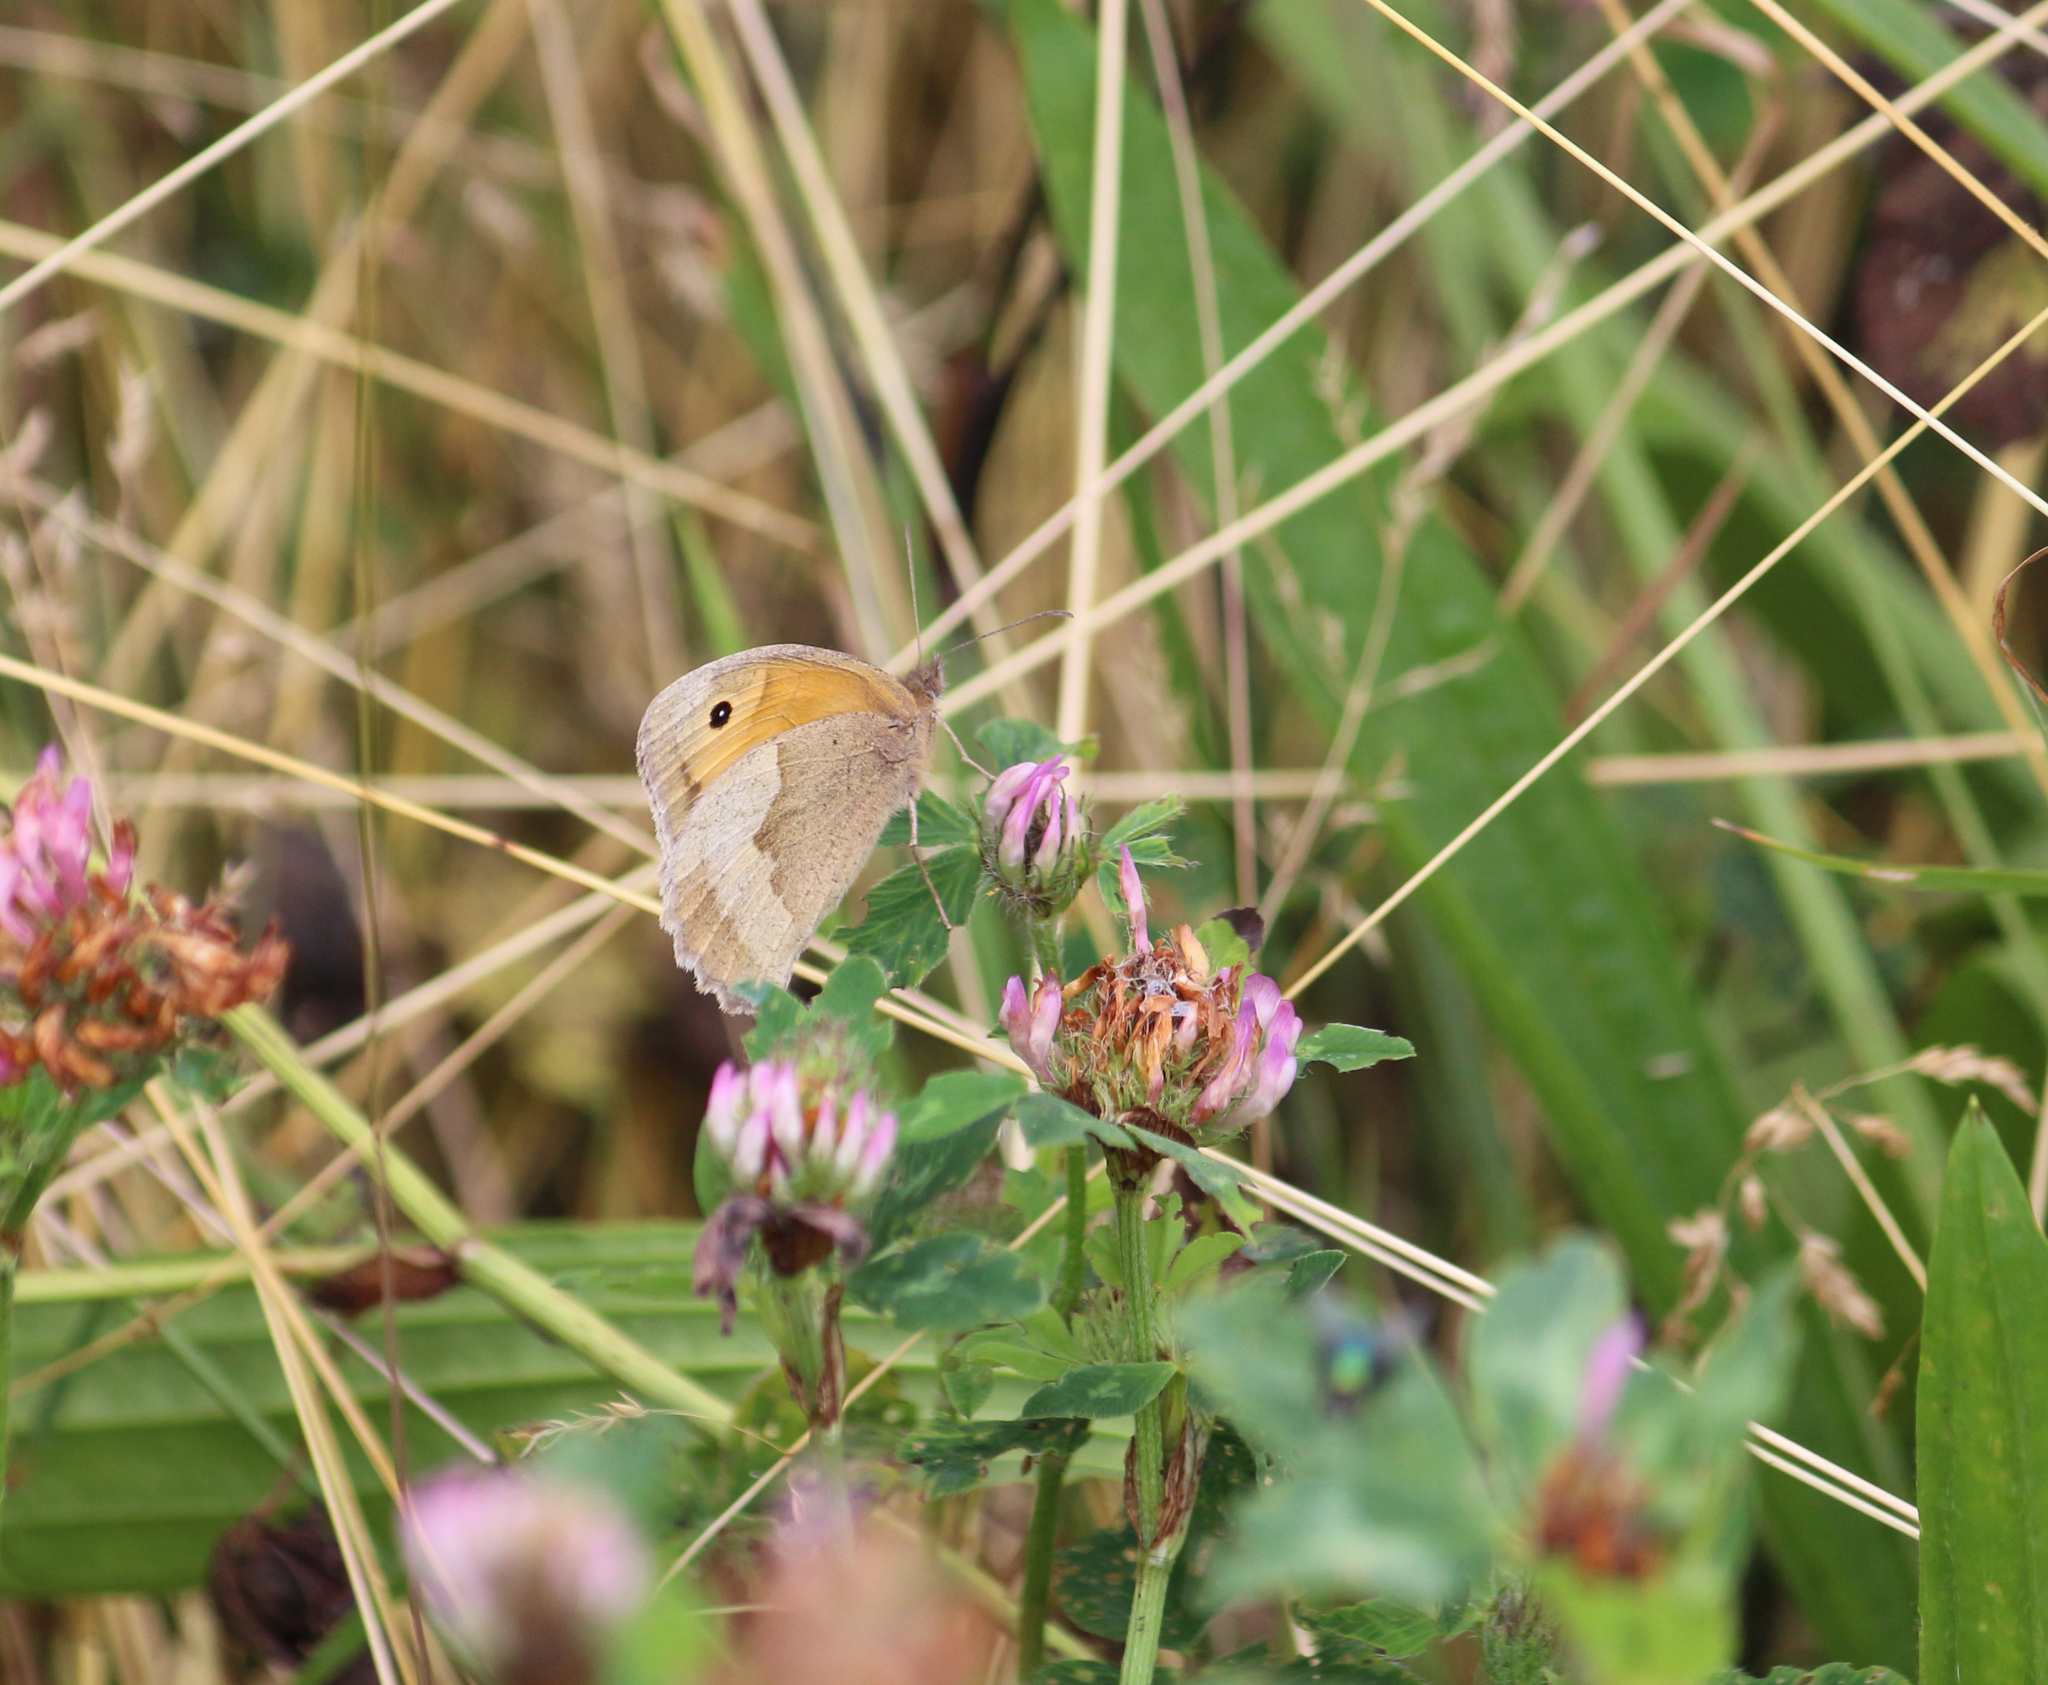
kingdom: Animalia
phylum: Arthropoda
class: Insecta
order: Lepidoptera
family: Nymphalidae
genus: Maniola
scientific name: Maniola jurtina
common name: Meadow brown
